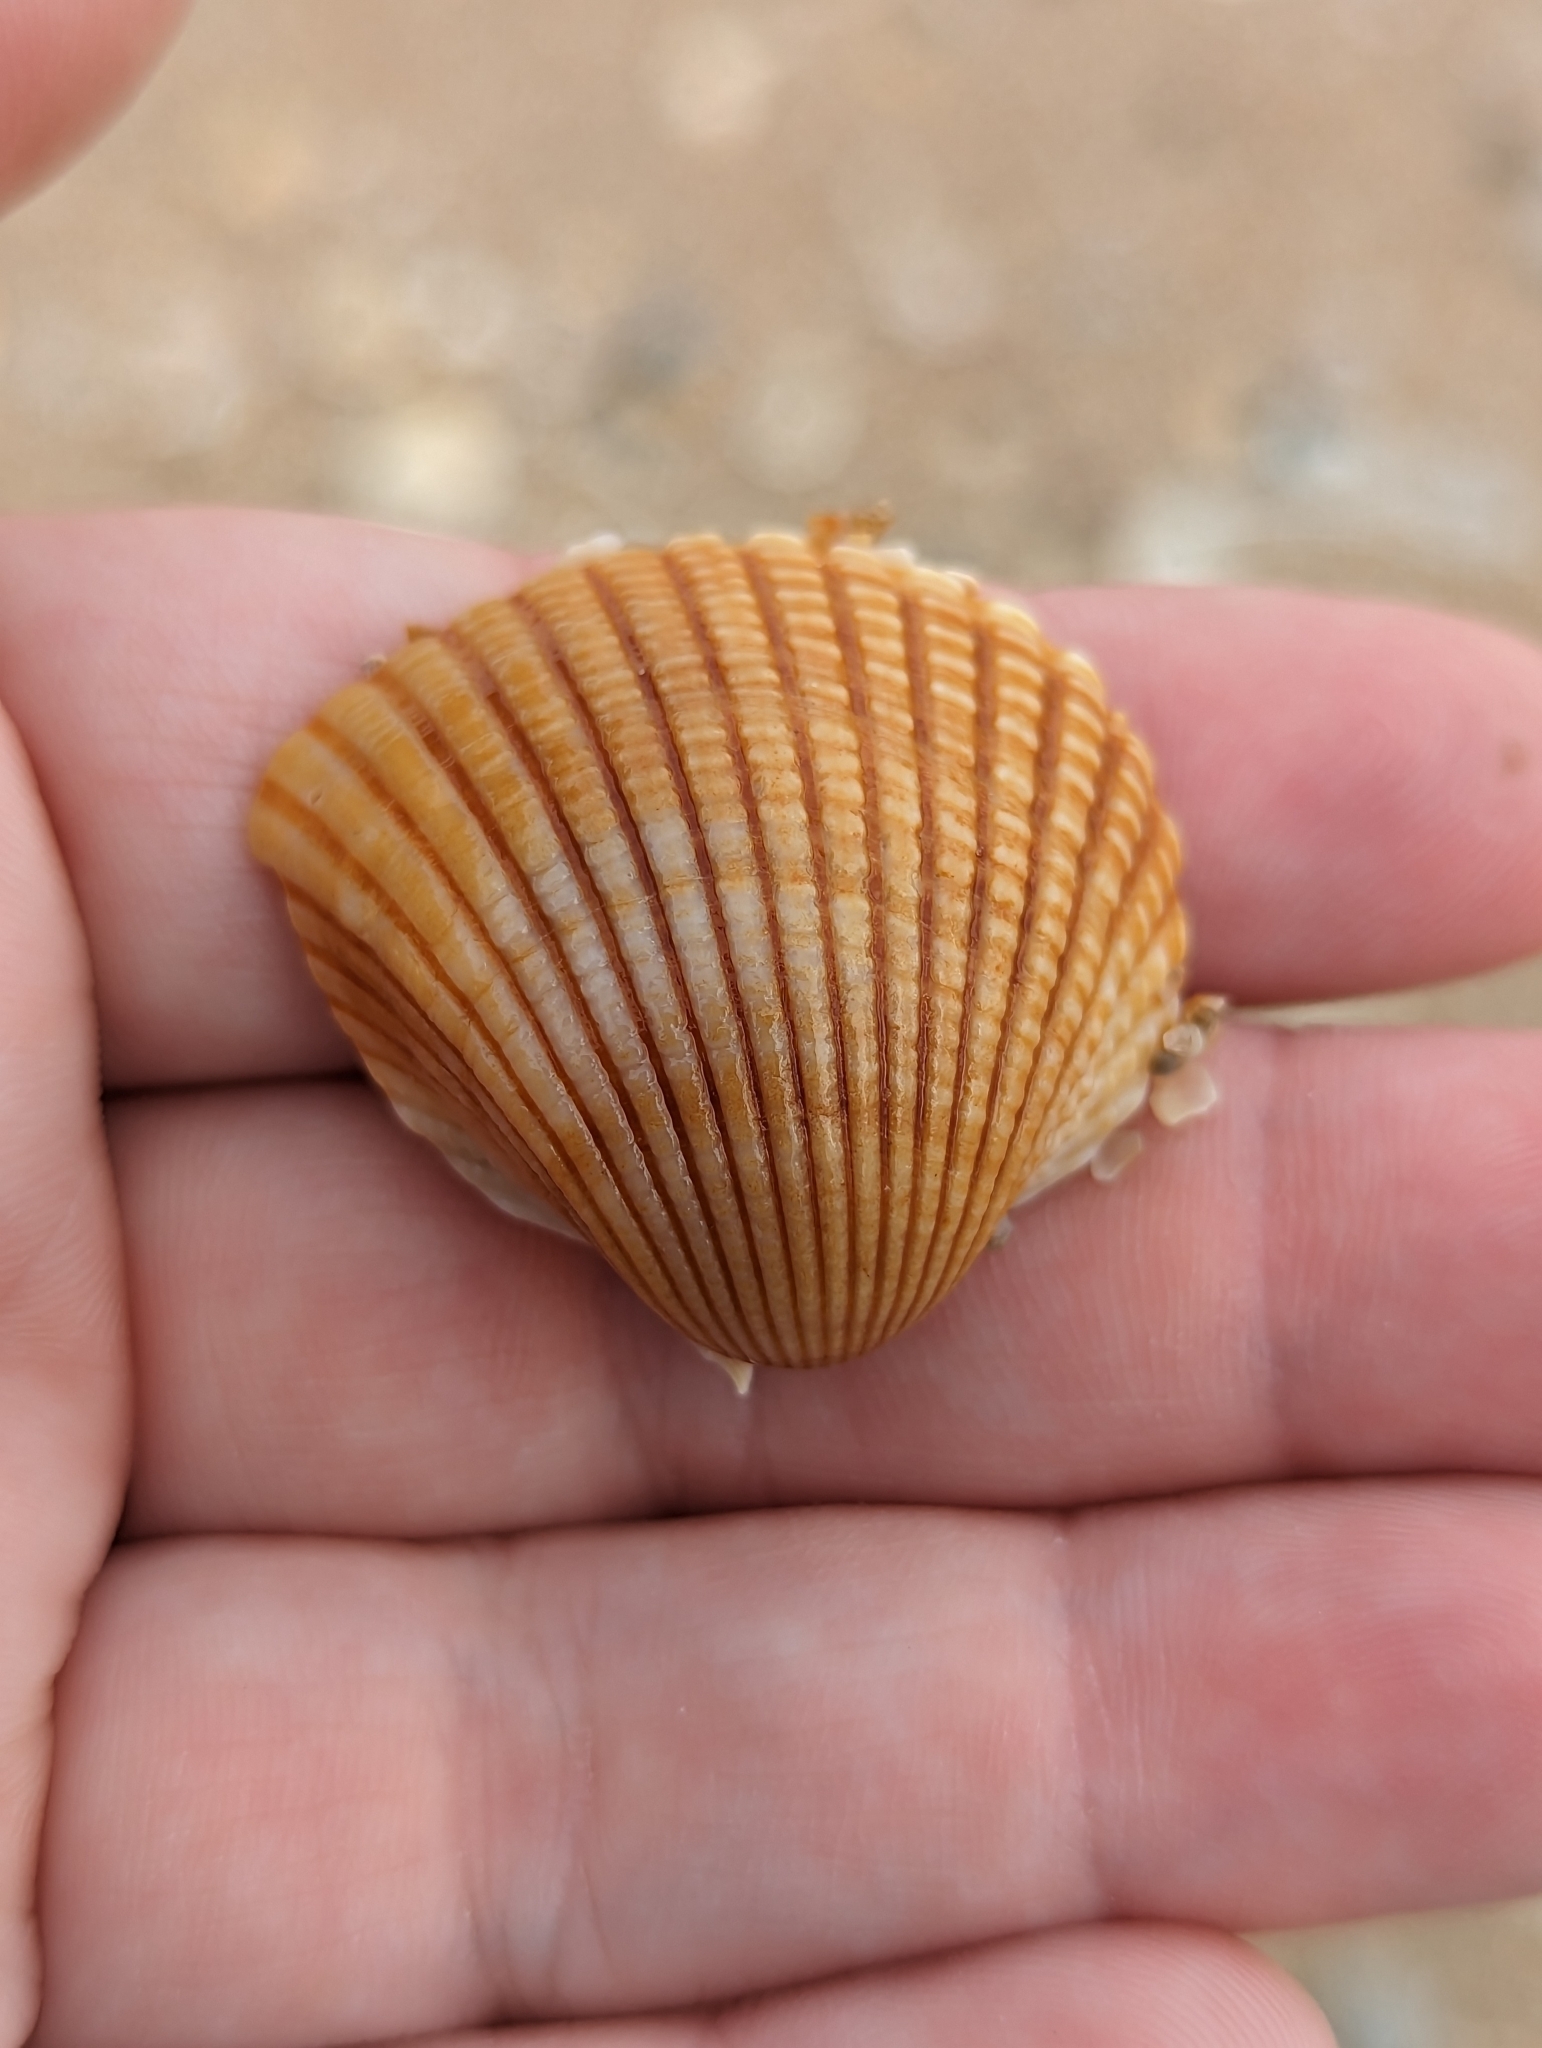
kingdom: Animalia
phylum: Mollusca
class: Bivalvia
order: Arcida
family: Arcidae
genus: Anadara
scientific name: Anadara brasiliana
